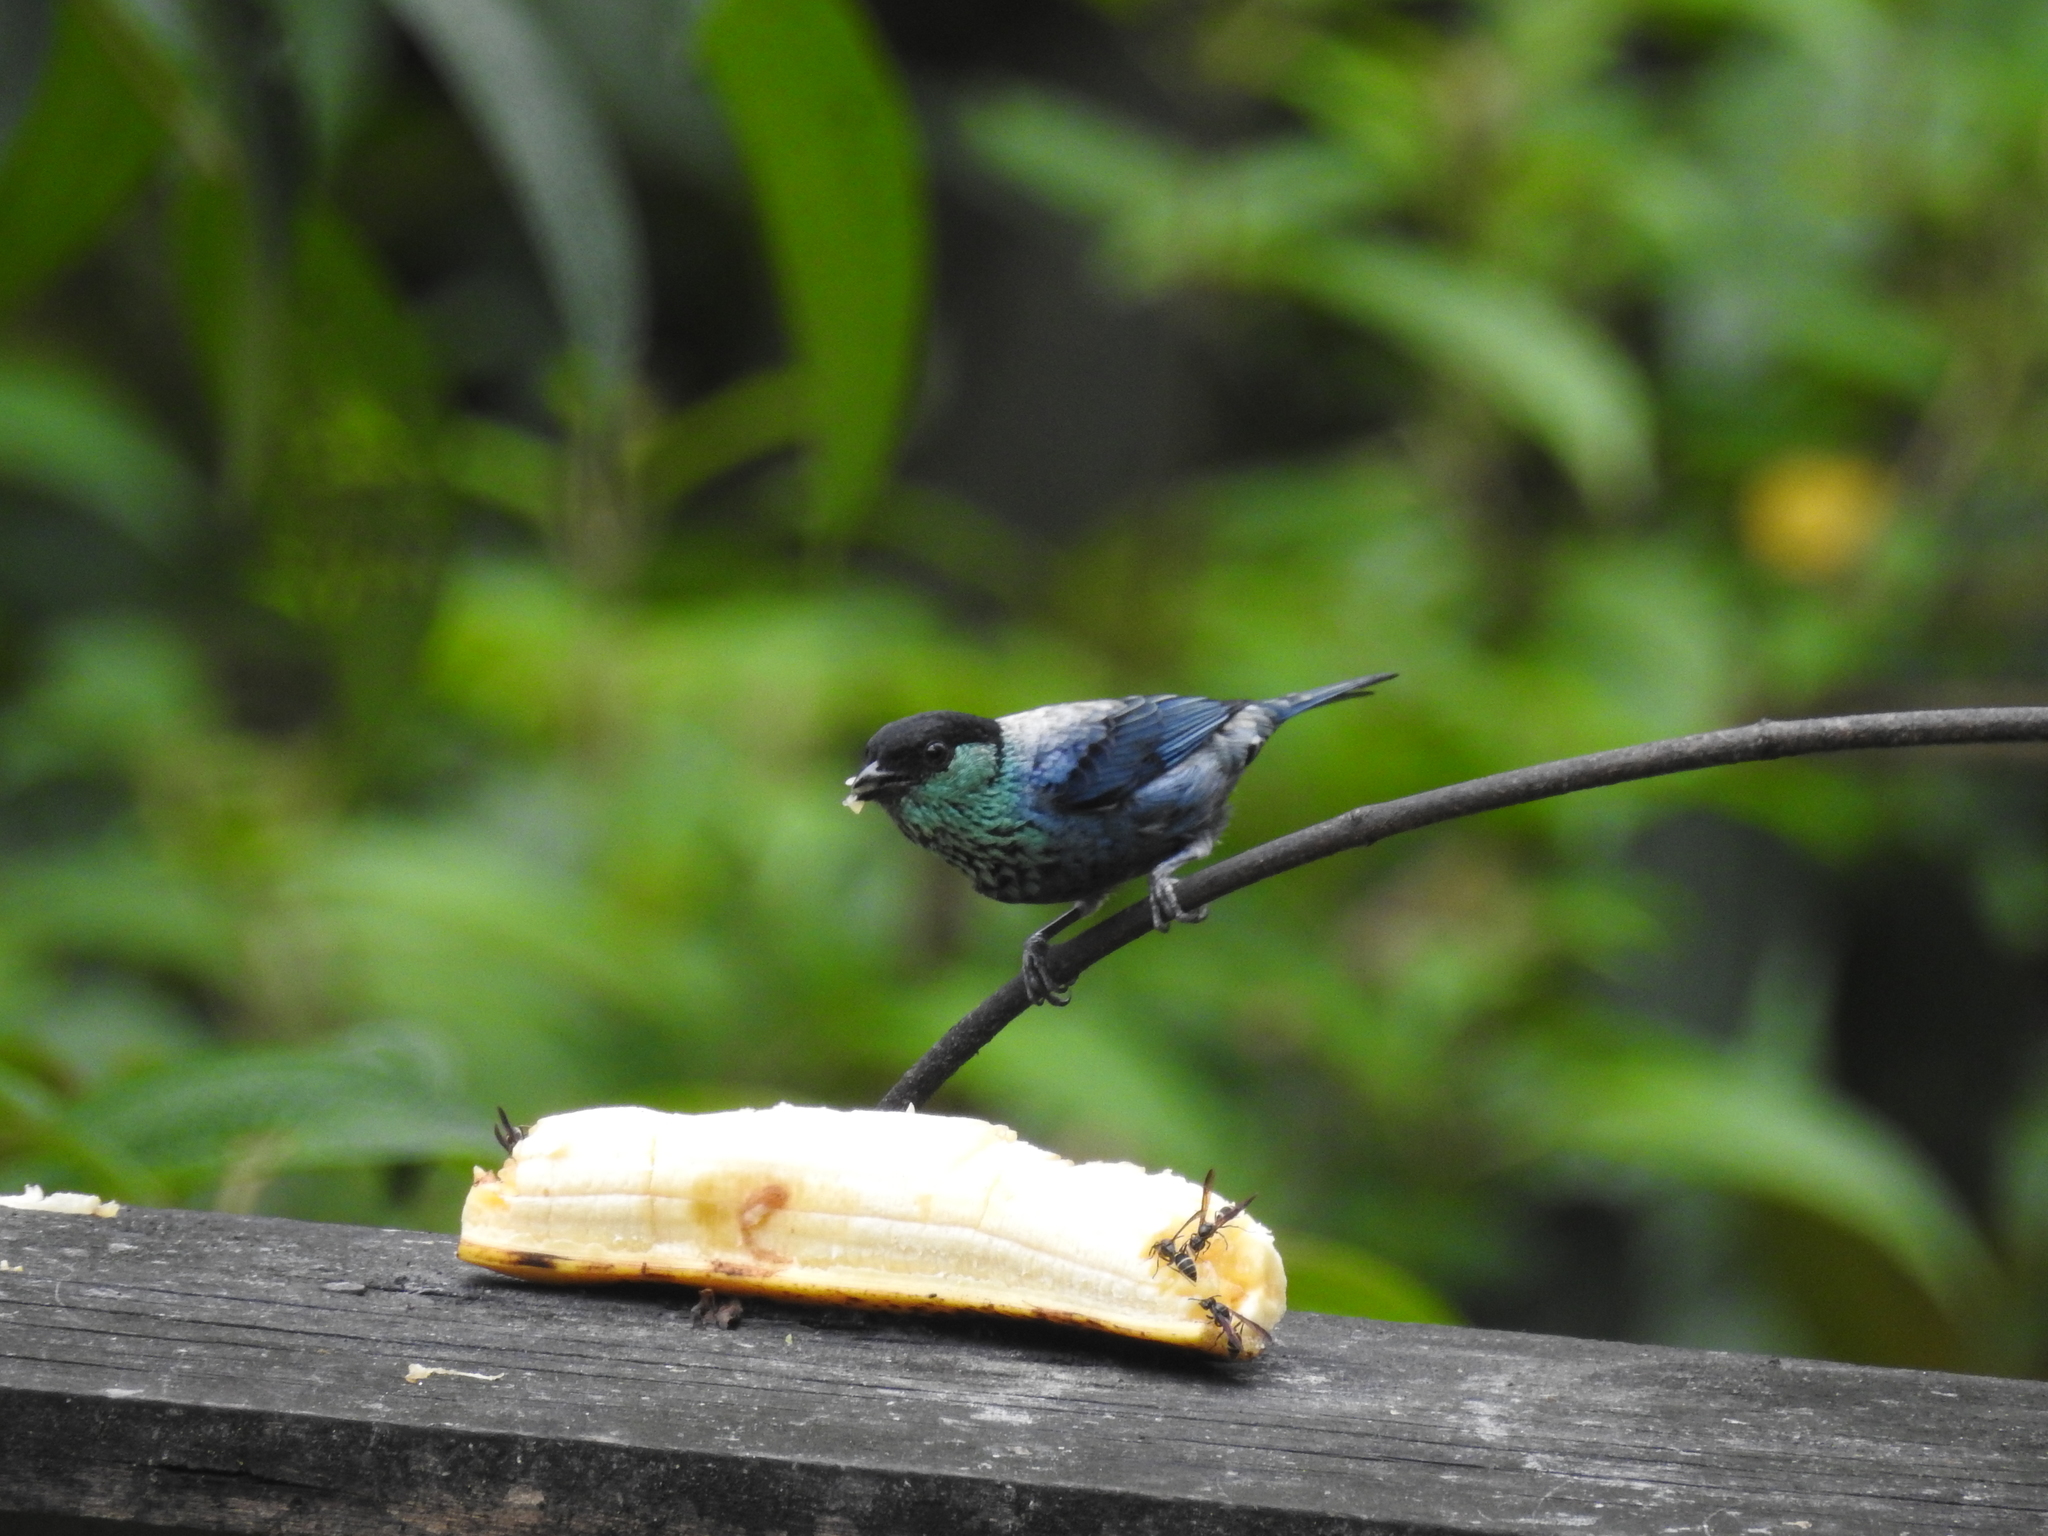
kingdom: Animalia
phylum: Chordata
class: Aves
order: Passeriformes
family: Thraupidae
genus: Stilpnia
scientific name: Stilpnia heinei
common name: Black-capped tanager
